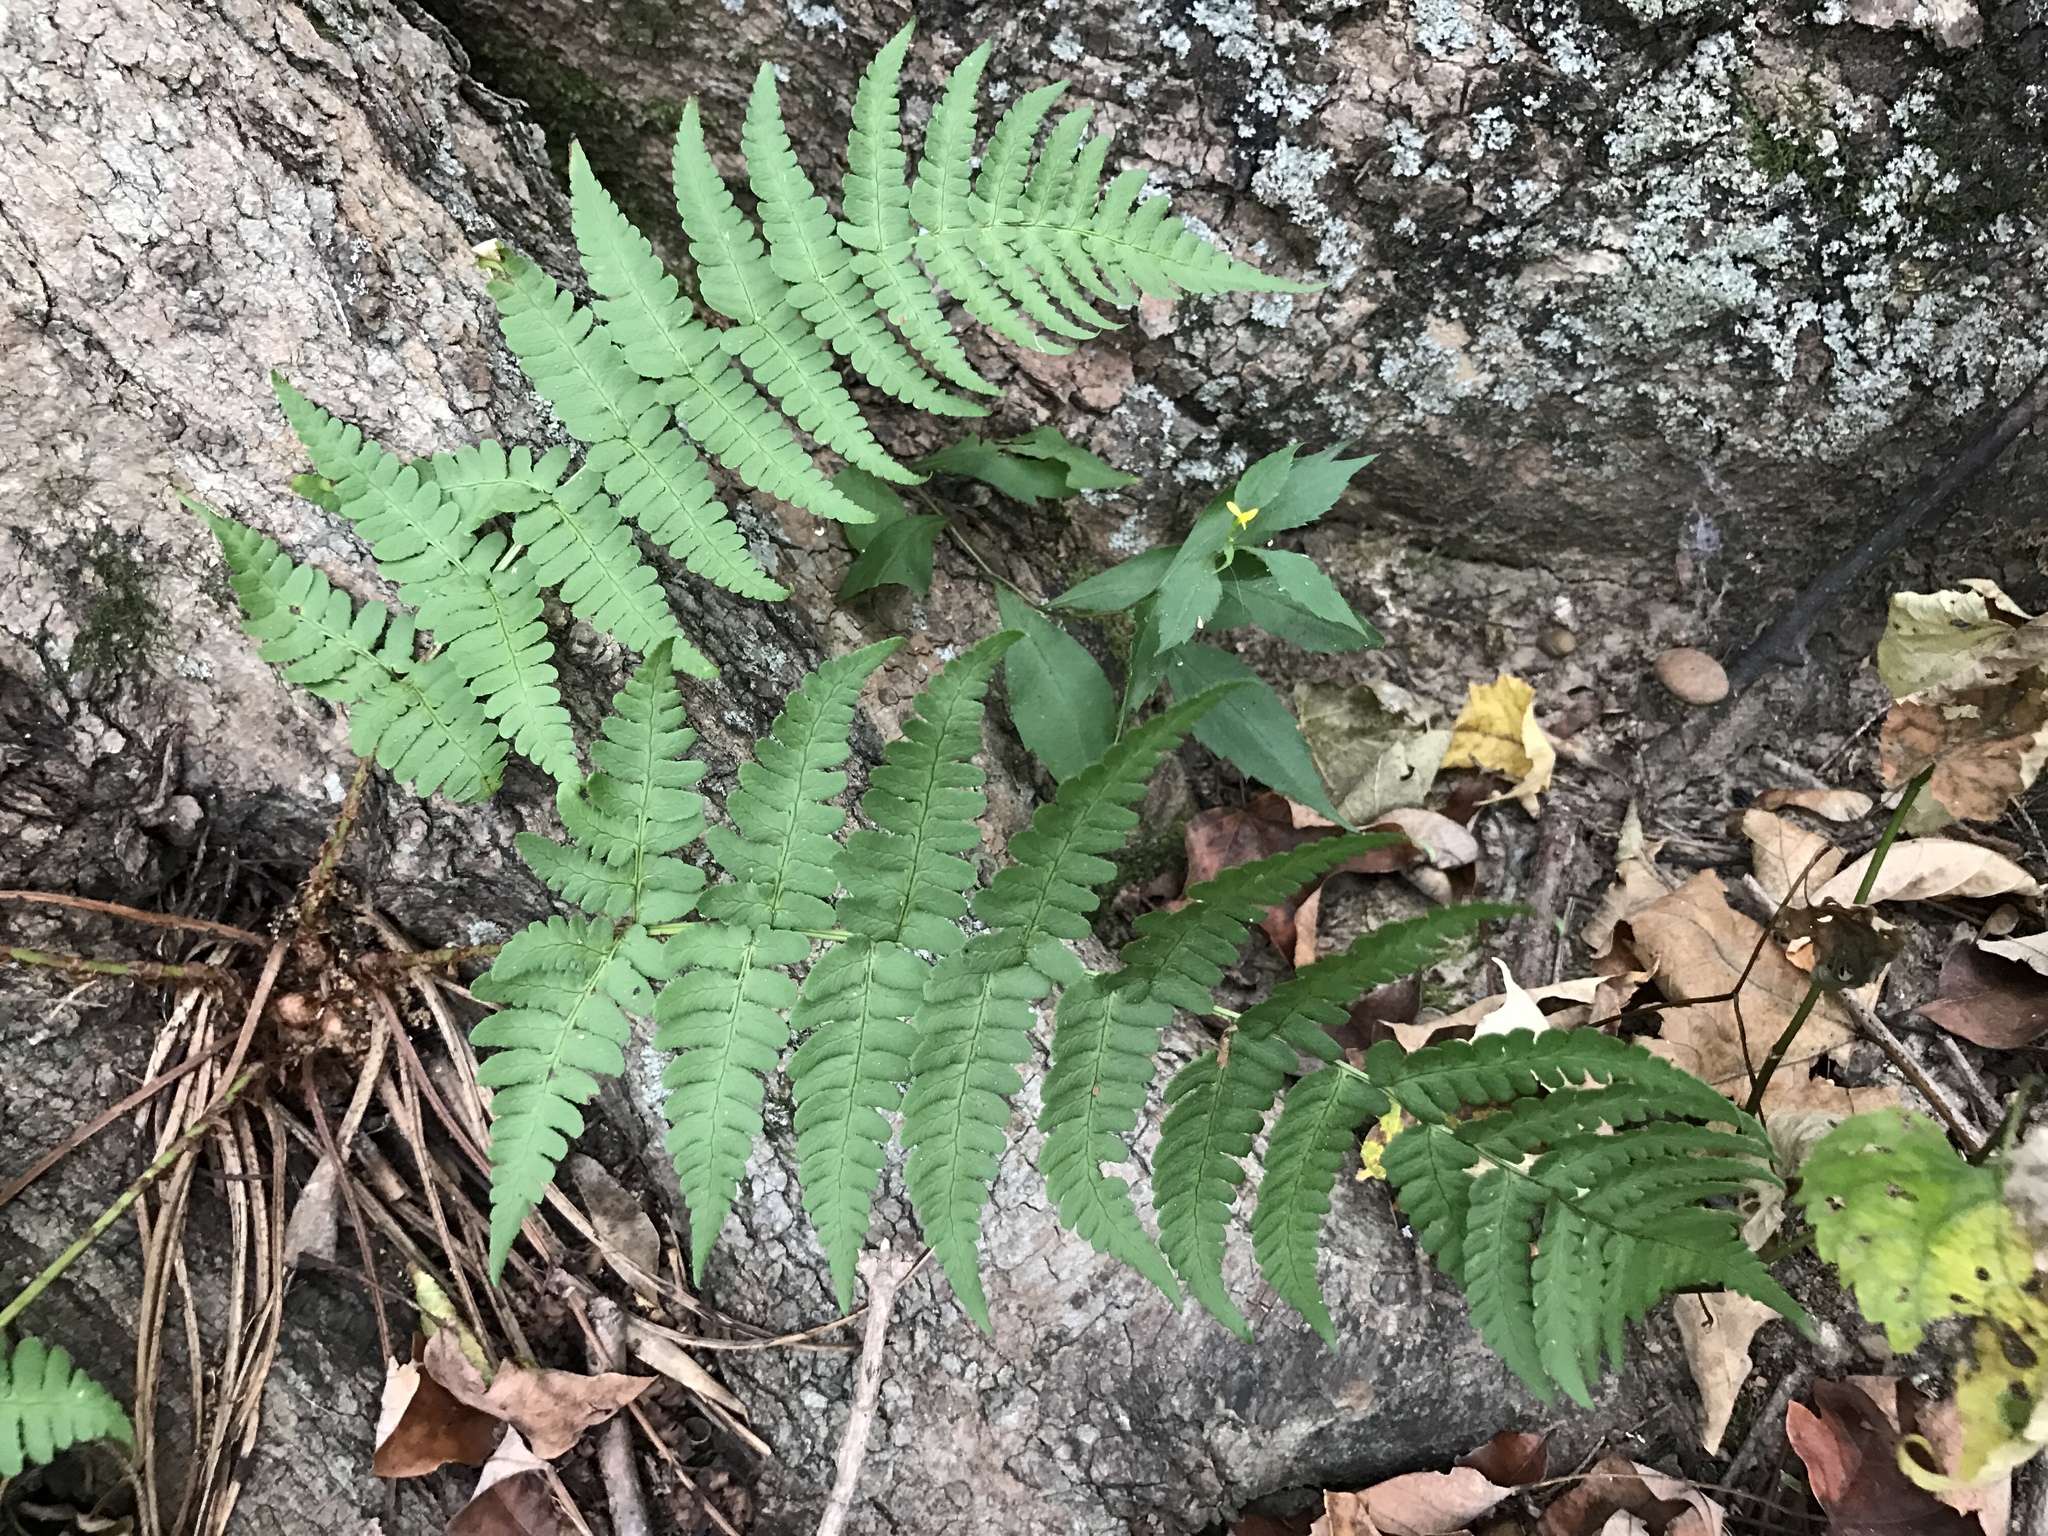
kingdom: Plantae
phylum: Tracheophyta
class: Polypodiopsida
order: Polypodiales
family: Dryopteridaceae
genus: Dryopteris
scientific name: Dryopteris marginalis
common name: Marginal wood fern
